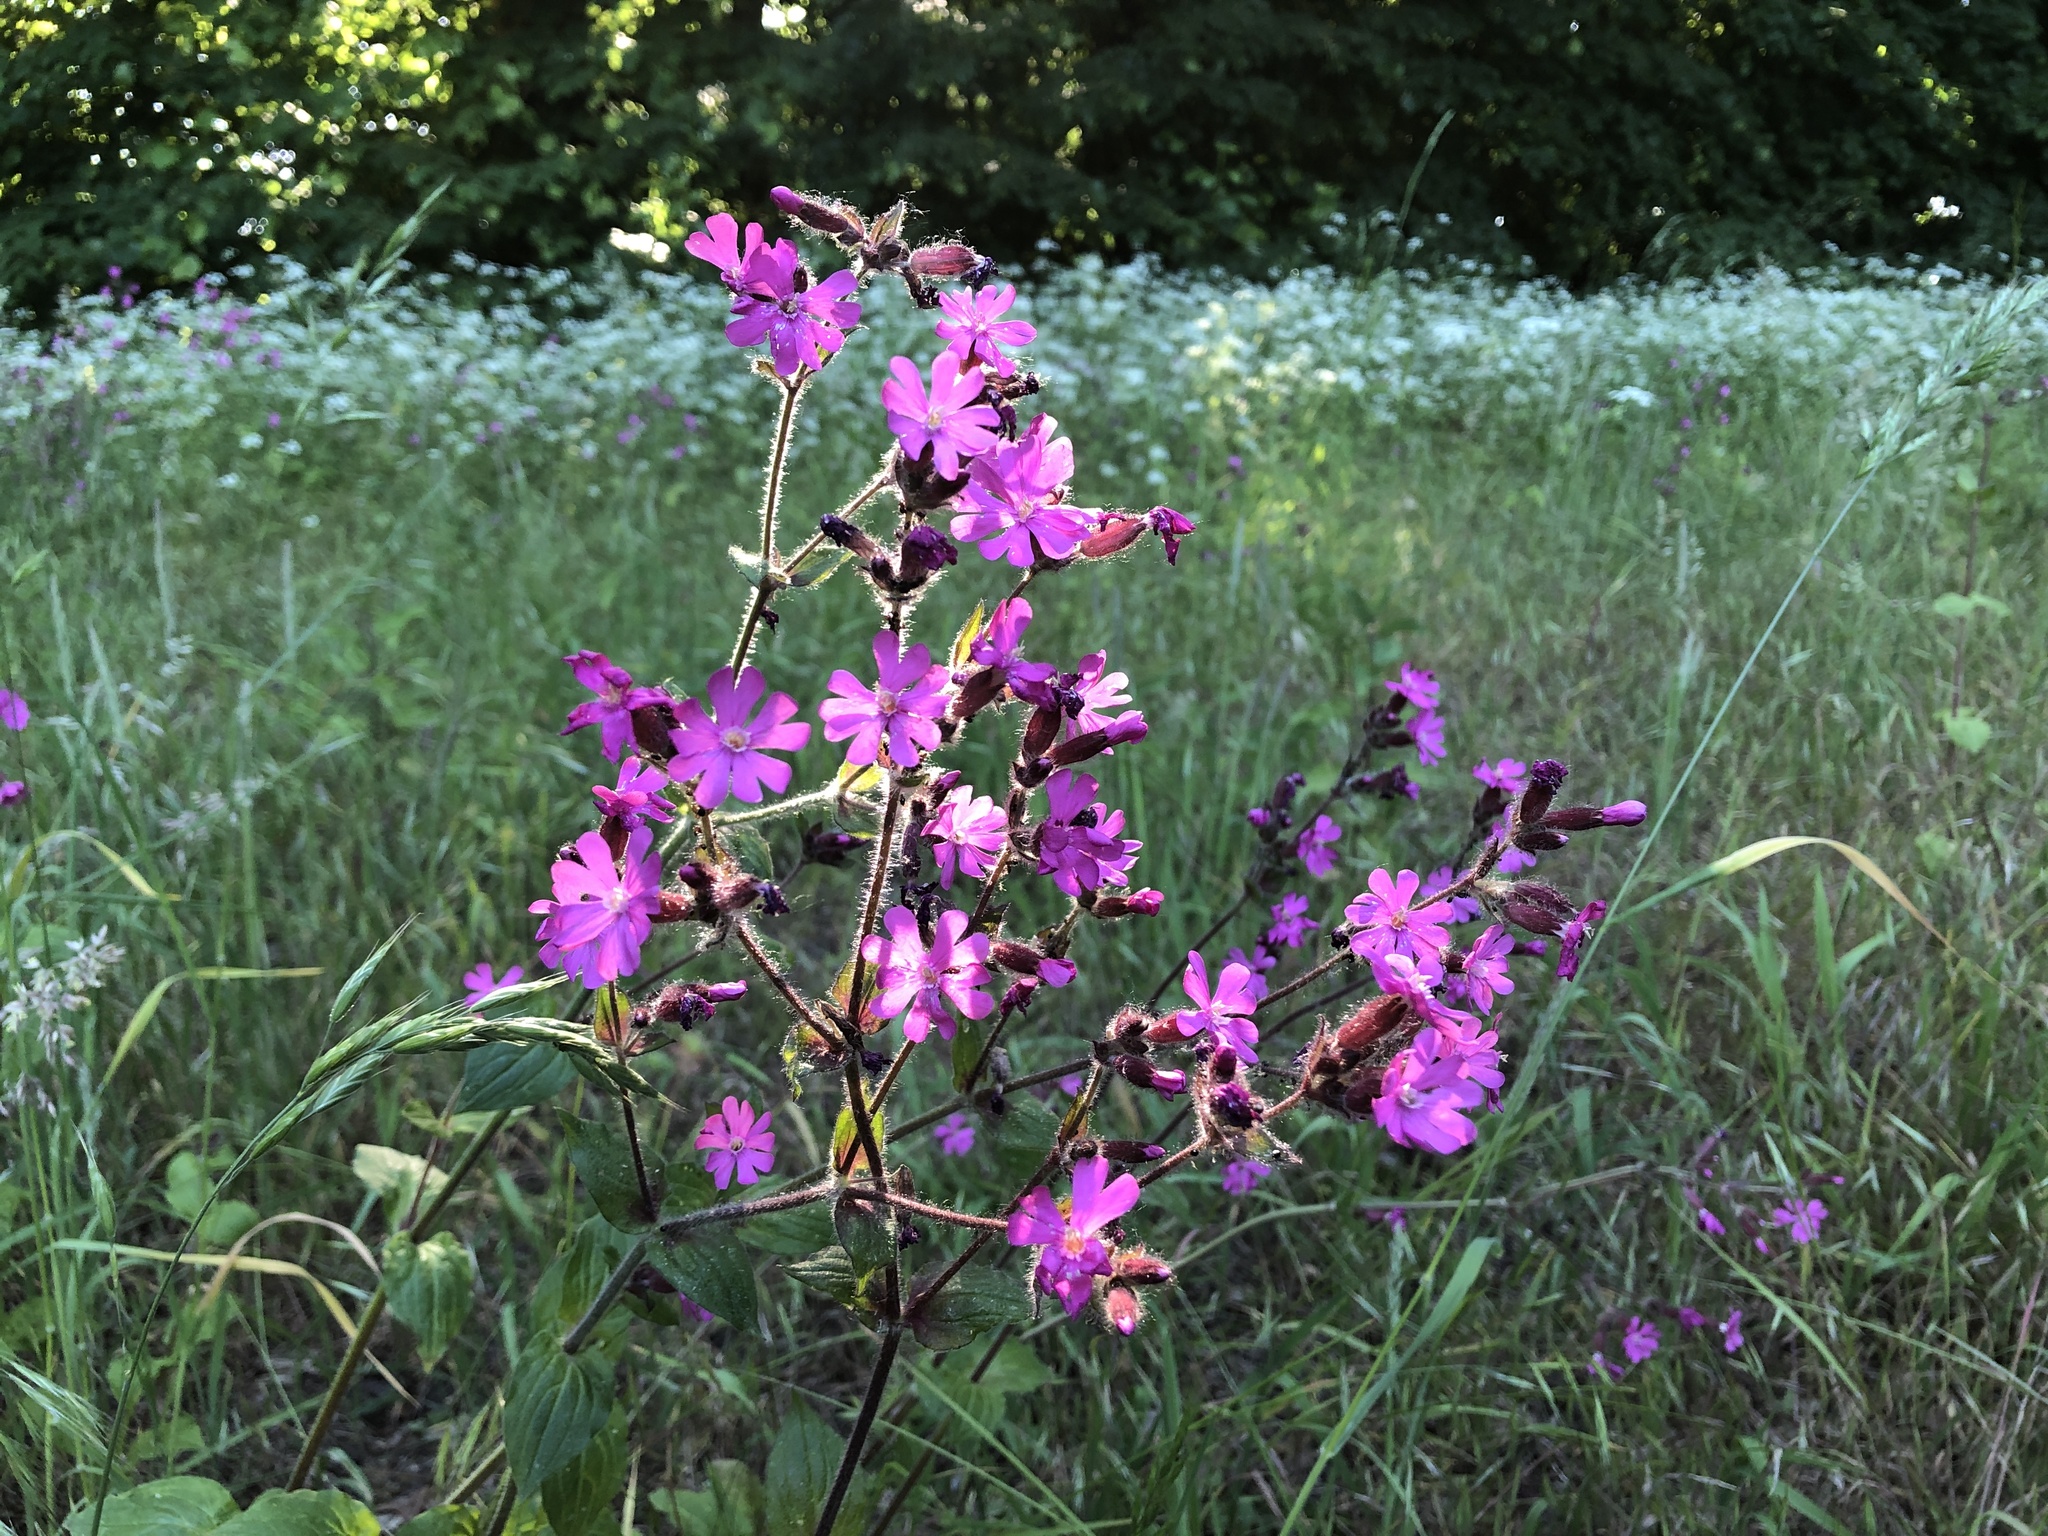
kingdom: Plantae
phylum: Tracheophyta
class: Magnoliopsida
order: Caryophyllales
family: Caryophyllaceae
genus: Silene
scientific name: Silene dioica
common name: Red campion
